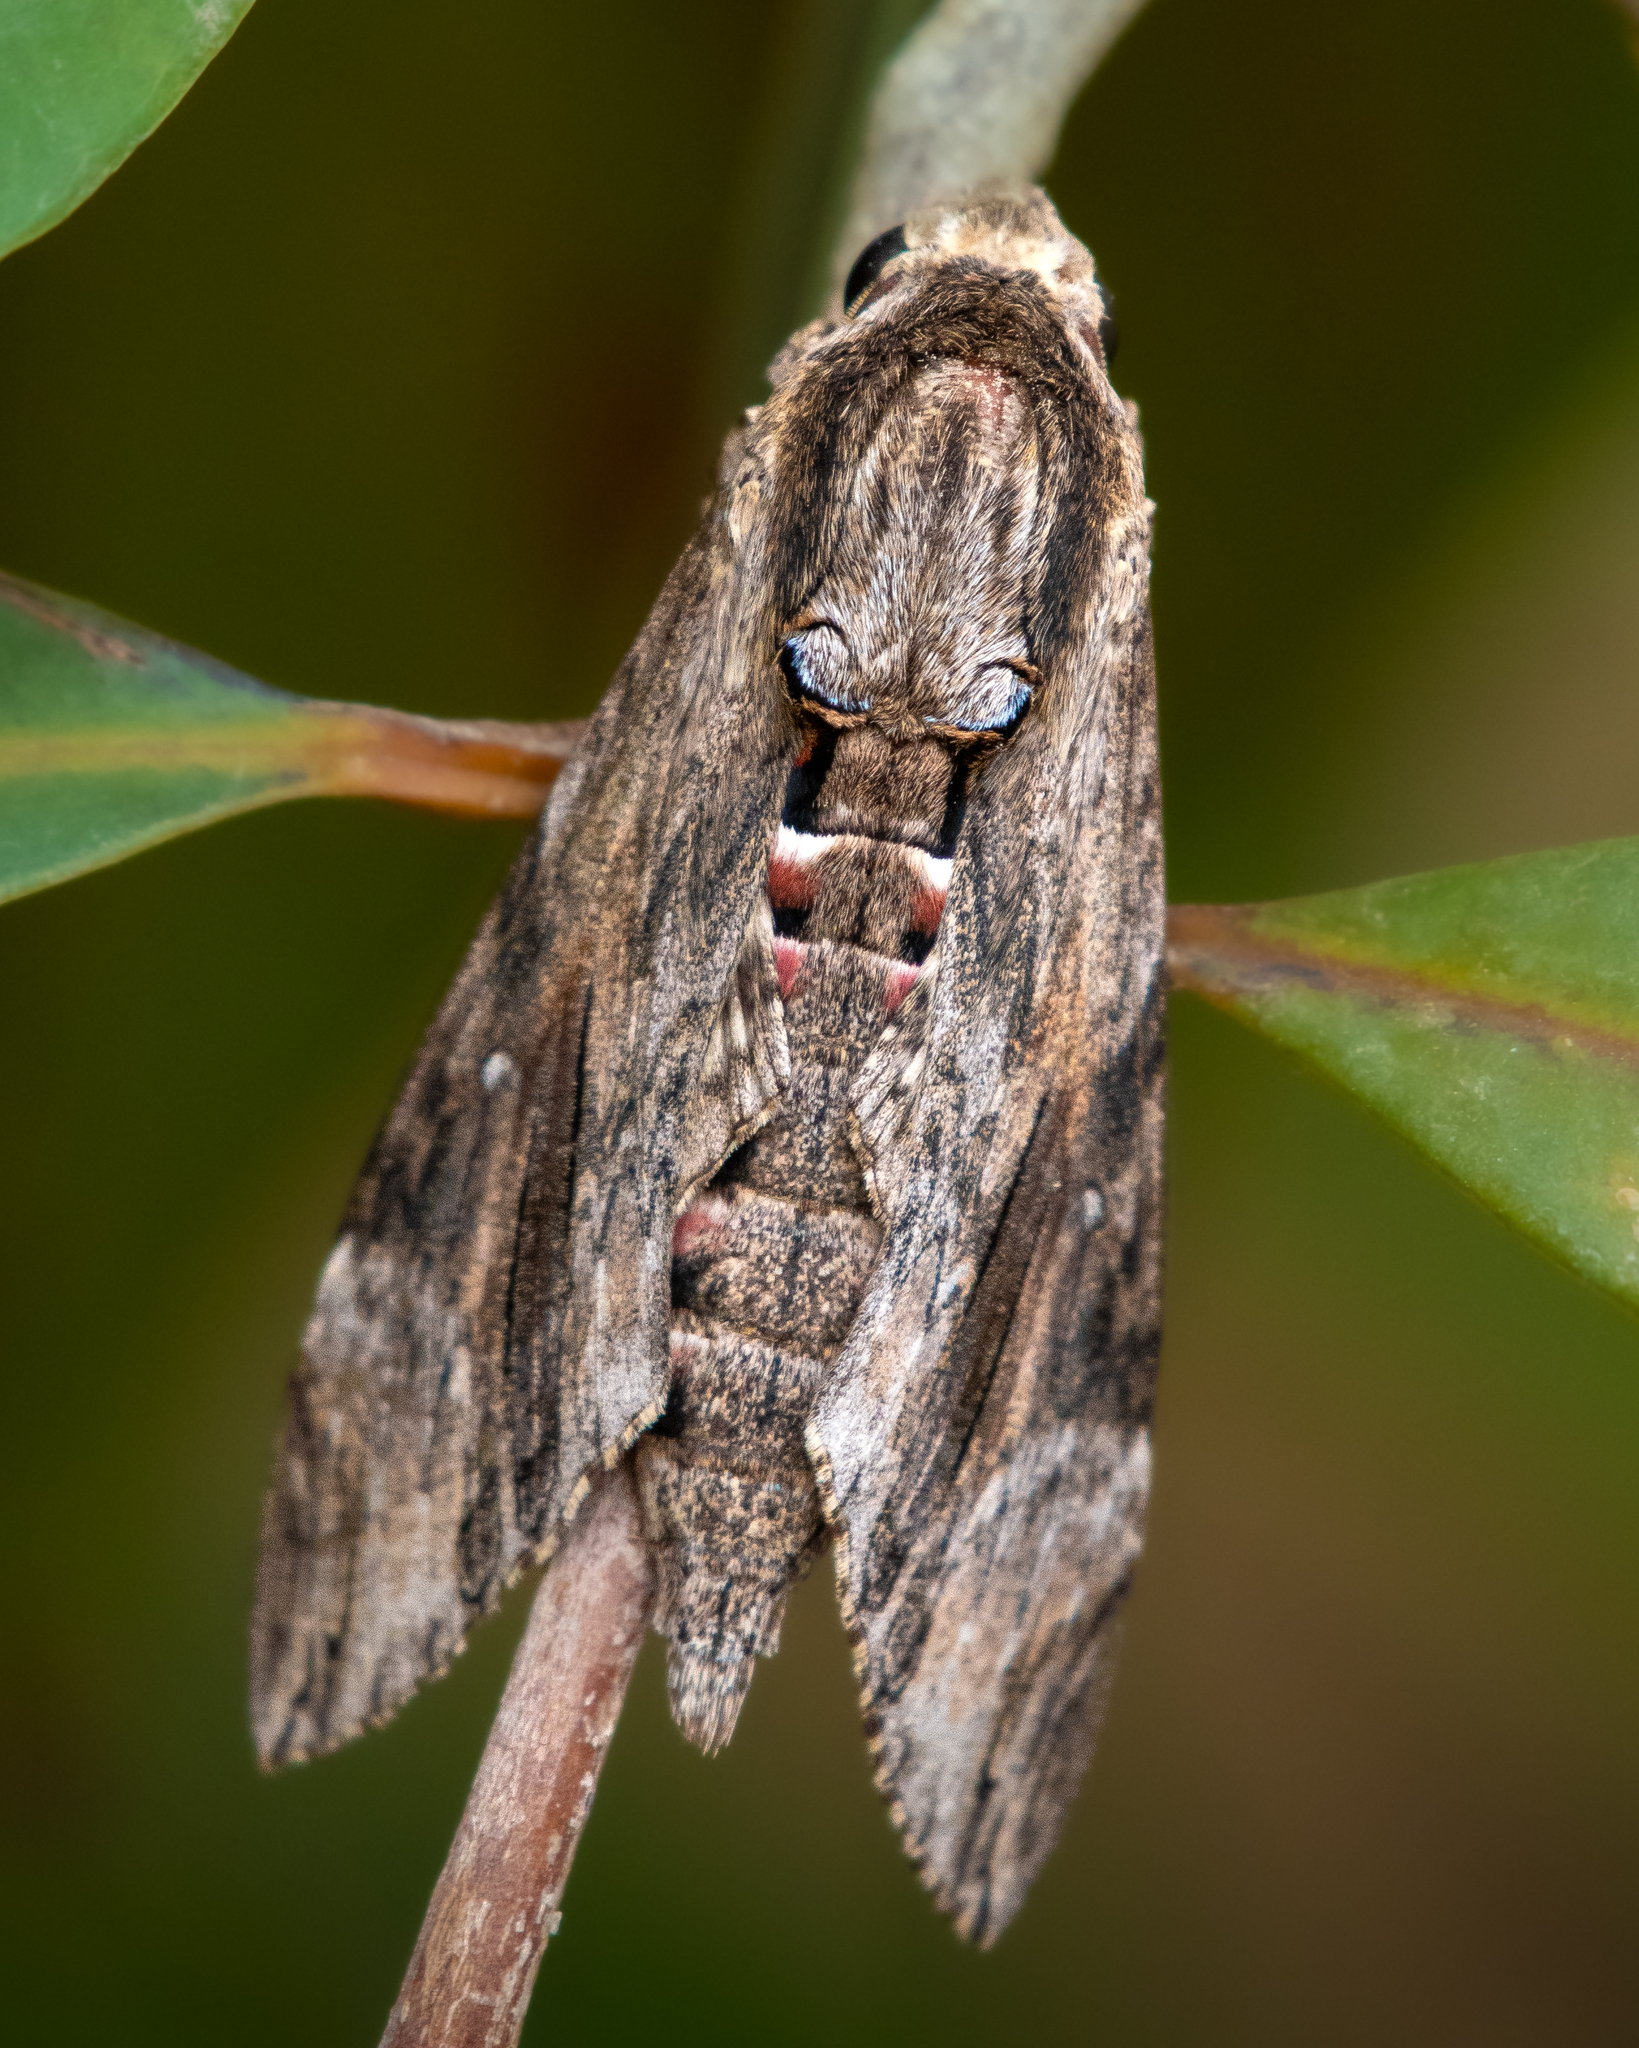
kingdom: Animalia
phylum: Arthropoda
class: Insecta
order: Lepidoptera
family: Sphingidae
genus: Agrius
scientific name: Agrius convolvuli
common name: Convolvulus hawkmoth
